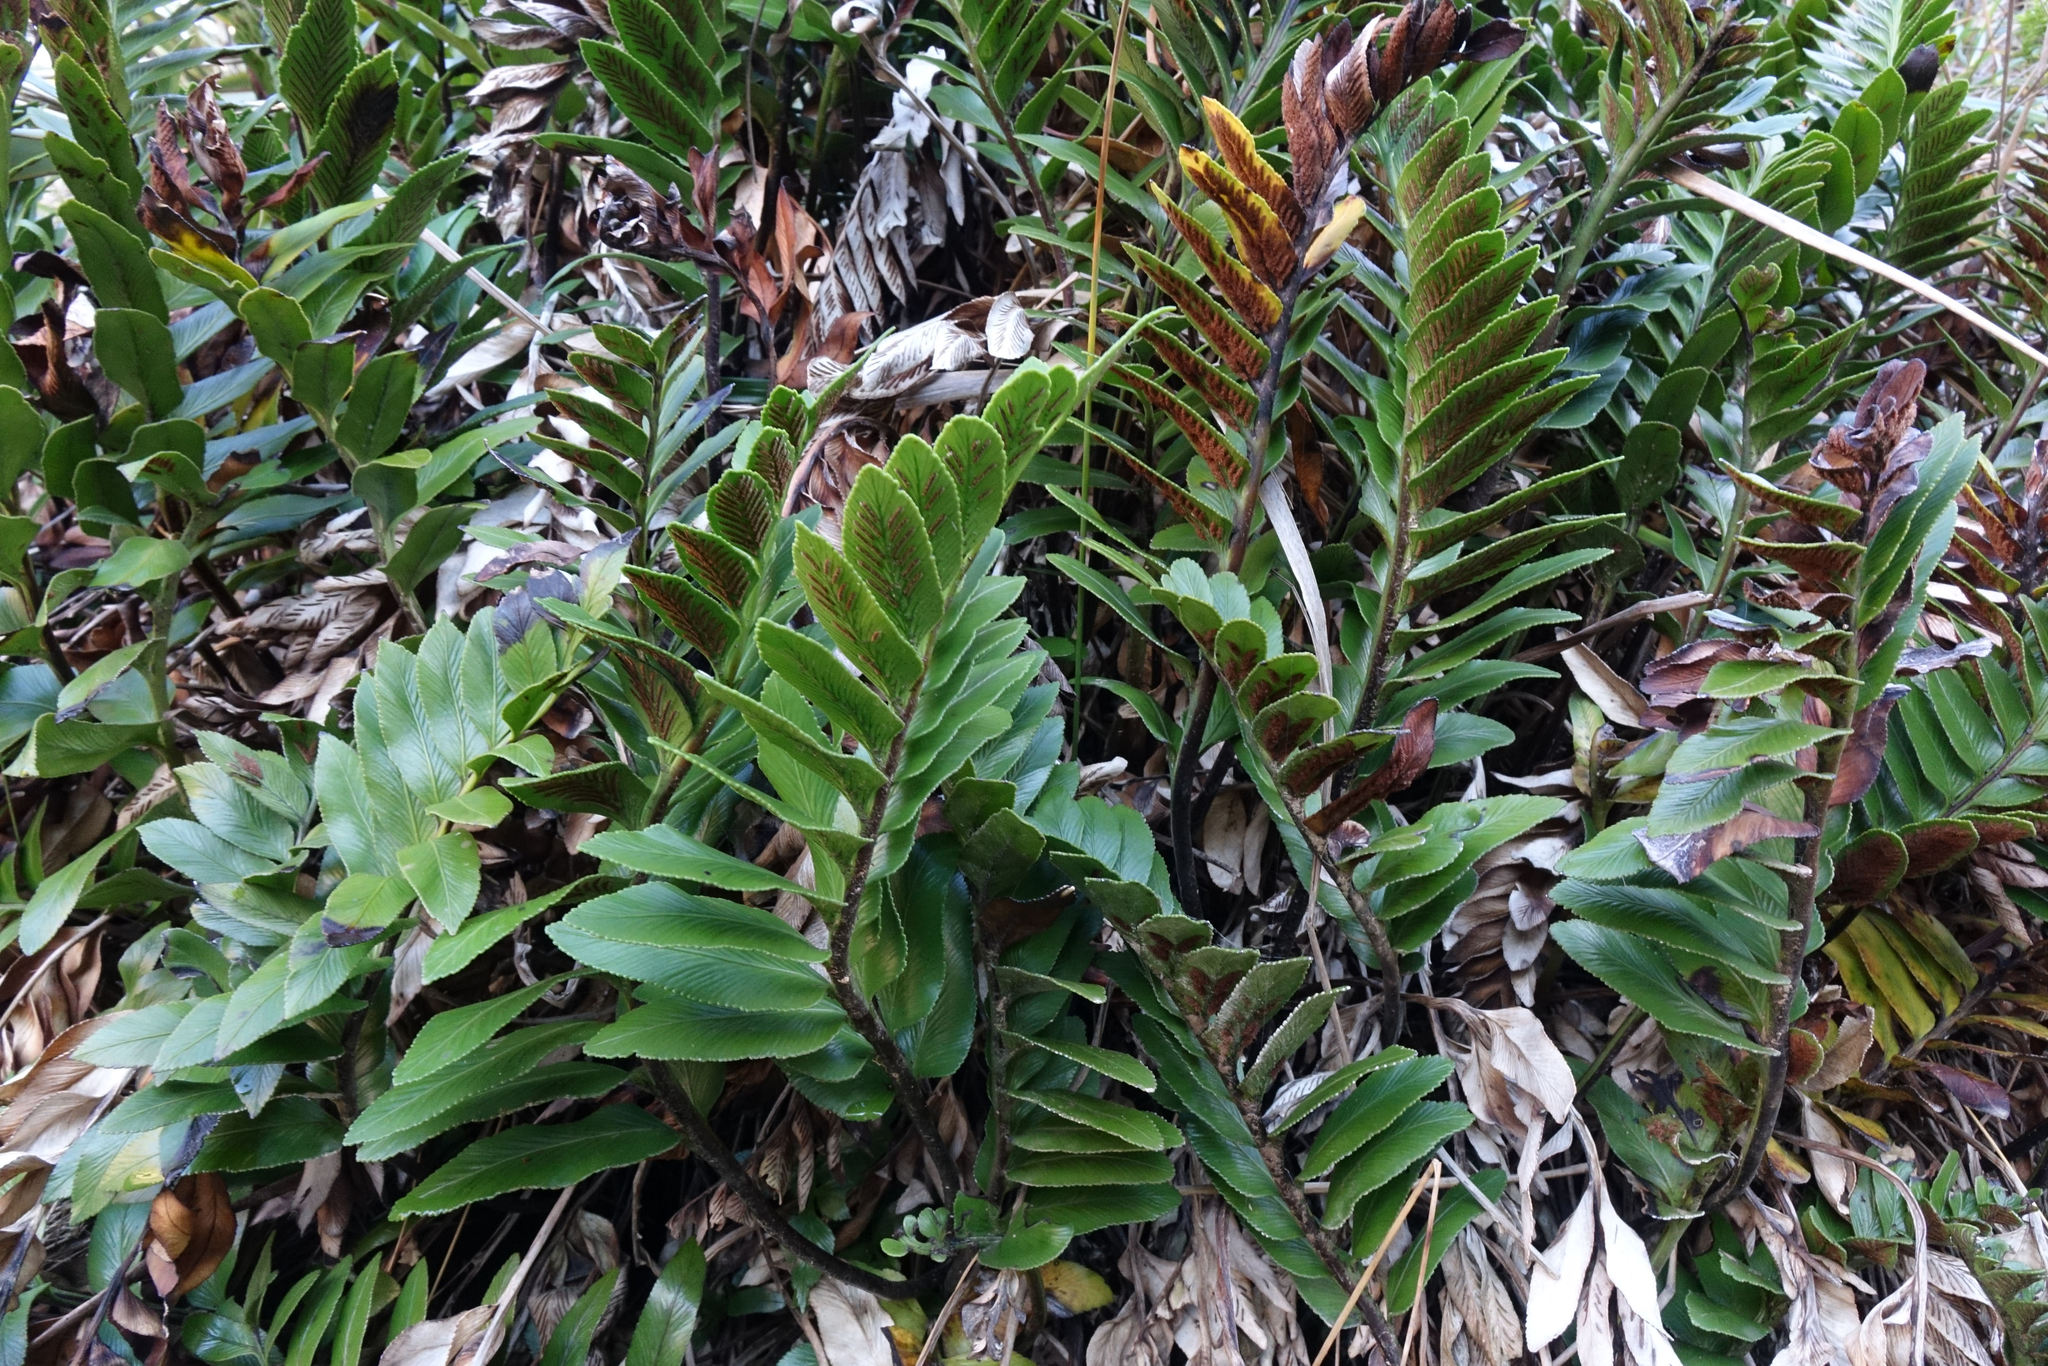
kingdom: Plantae
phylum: Tracheophyta
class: Polypodiopsida
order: Polypodiales
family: Aspleniaceae
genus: Asplenium
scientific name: Asplenium obtusatum
